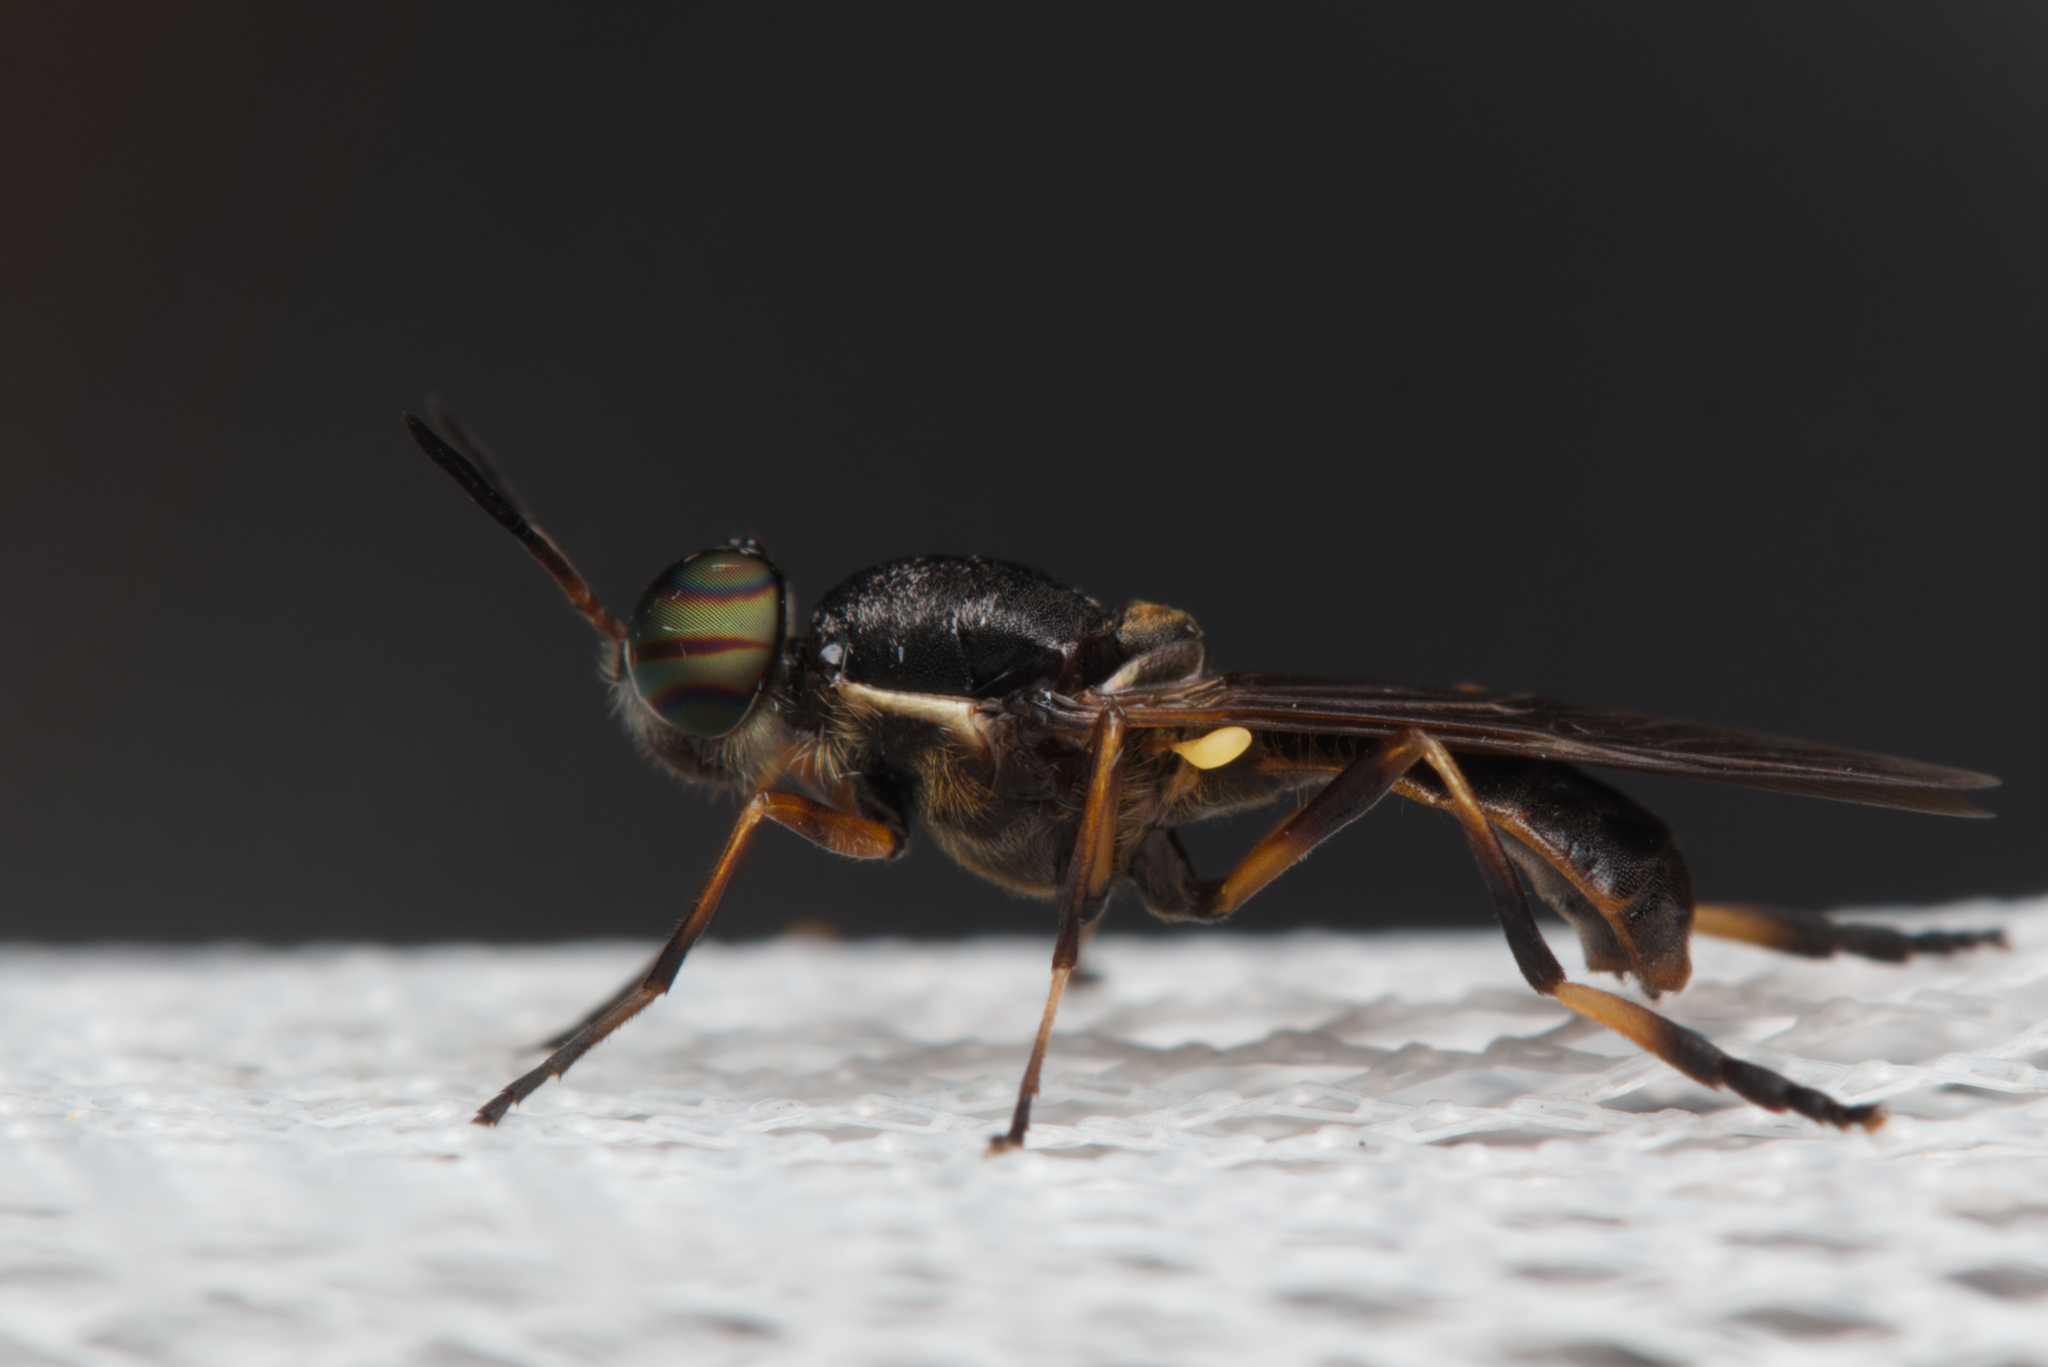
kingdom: Animalia
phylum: Arthropoda
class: Insecta
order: Diptera
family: Stratiomyidae
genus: Lagenosoma
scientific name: Lagenosoma dispar
